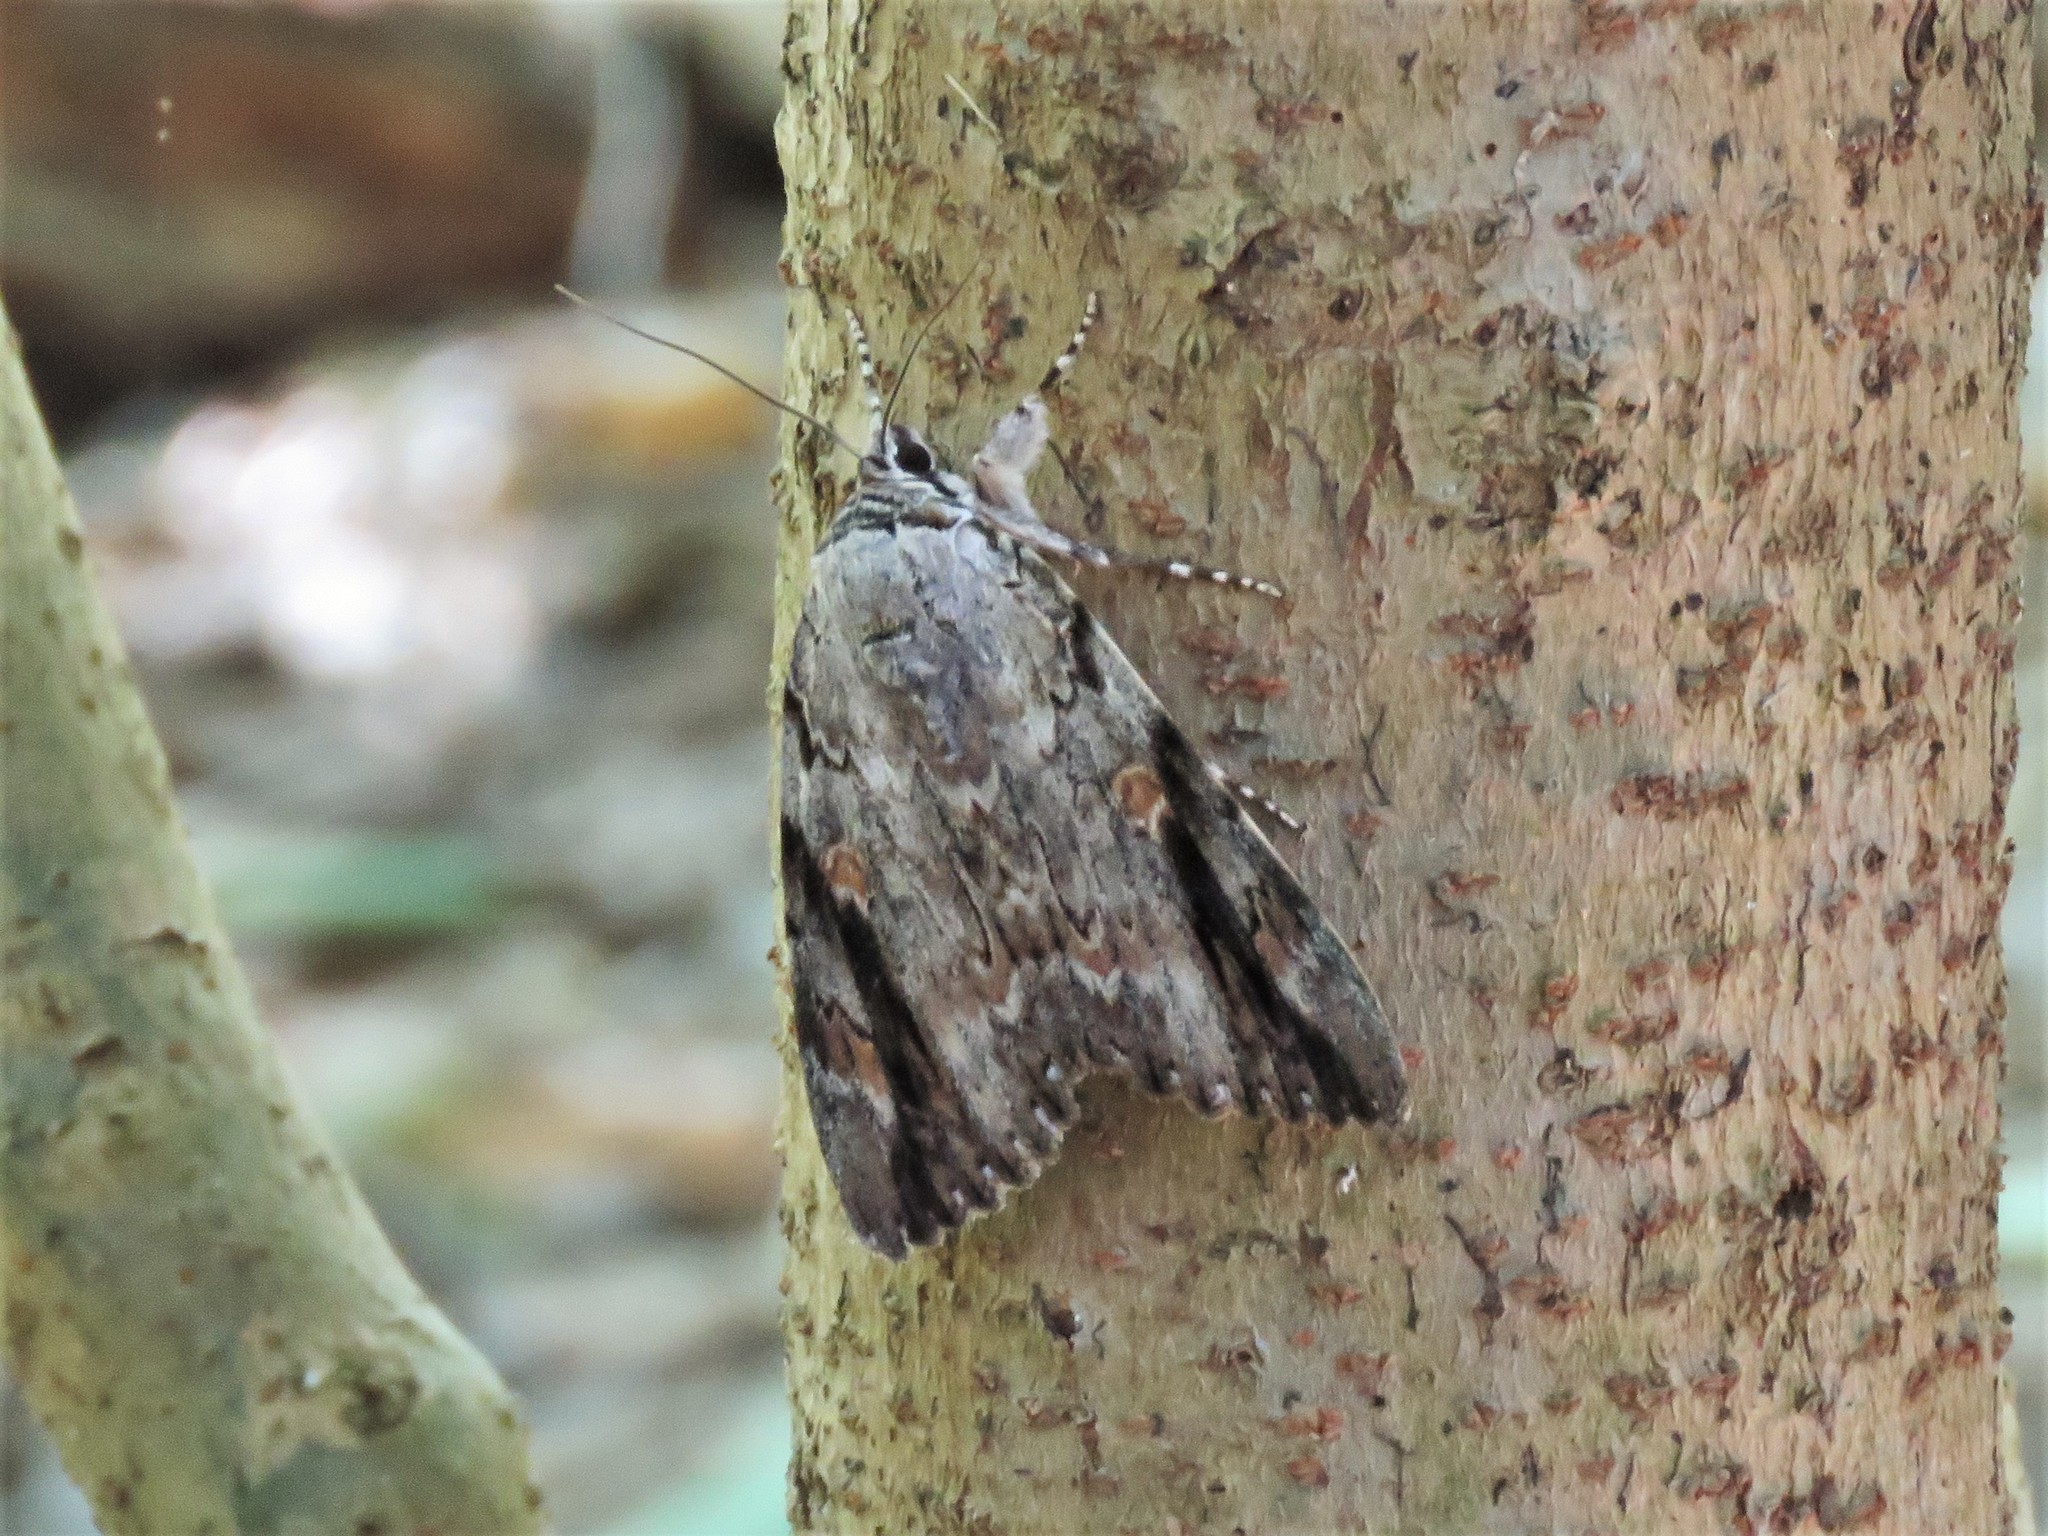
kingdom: Animalia
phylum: Arthropoda
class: Insecta
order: Lepidoptera
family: Erebidae
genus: Catocala
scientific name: Catocala maestosa
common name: Sad underwing
